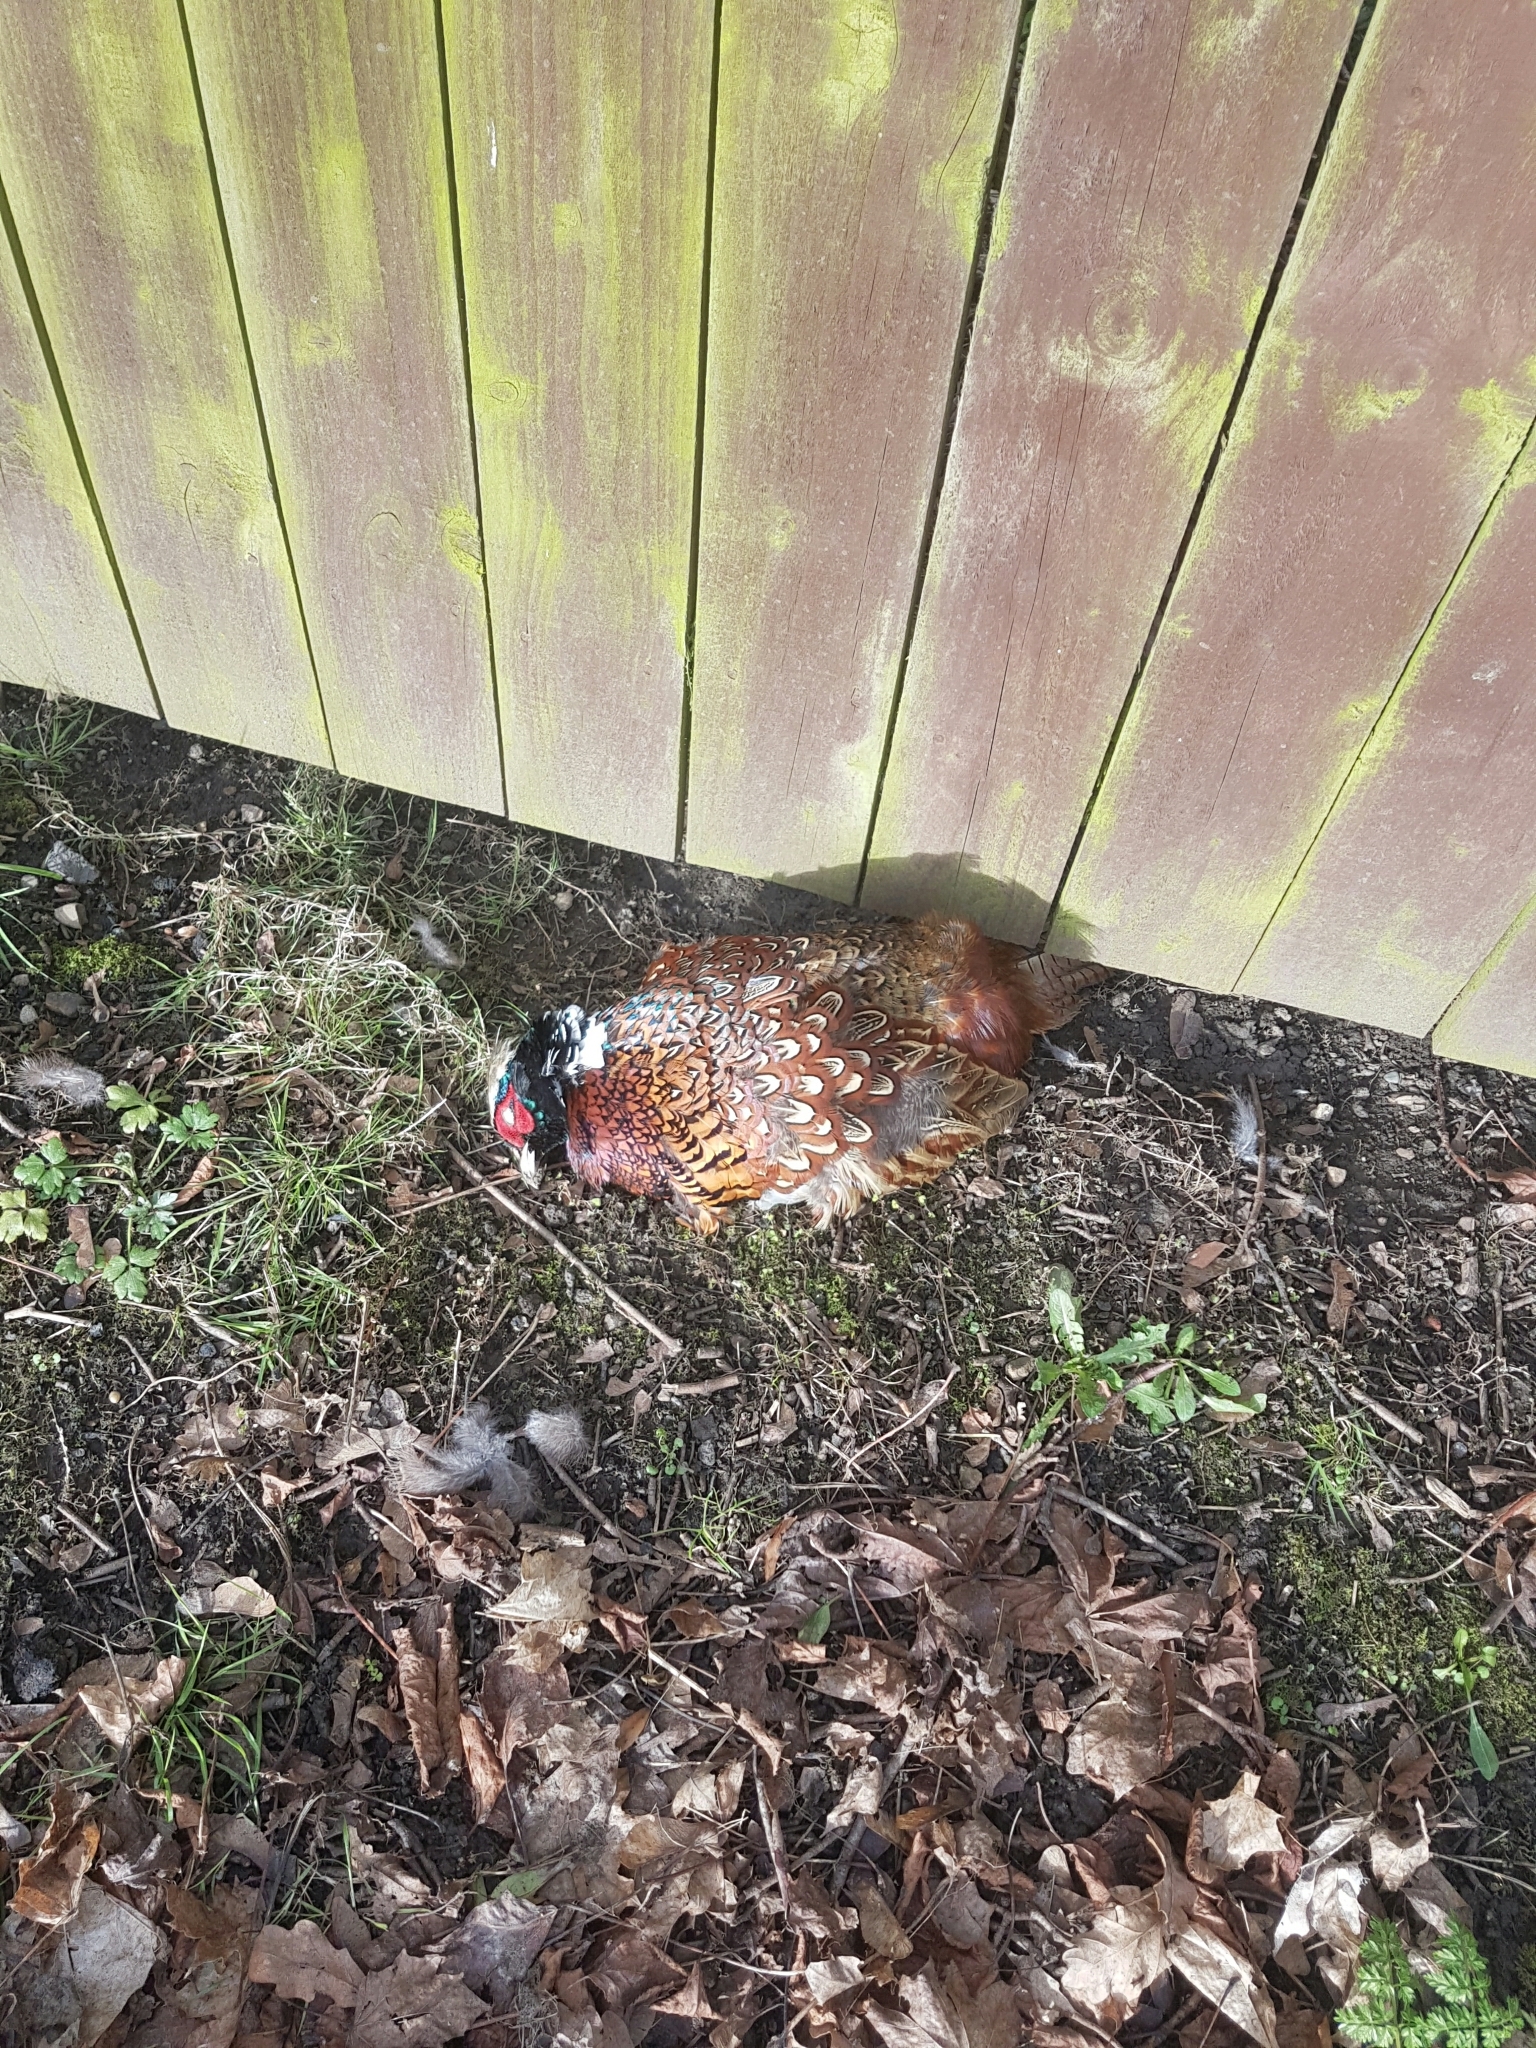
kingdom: Animalia
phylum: Chordata
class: Aves
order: Galliformes
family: Phasianidae
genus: Phasianus
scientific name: Phasianus colchicus
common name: Common pheasant
